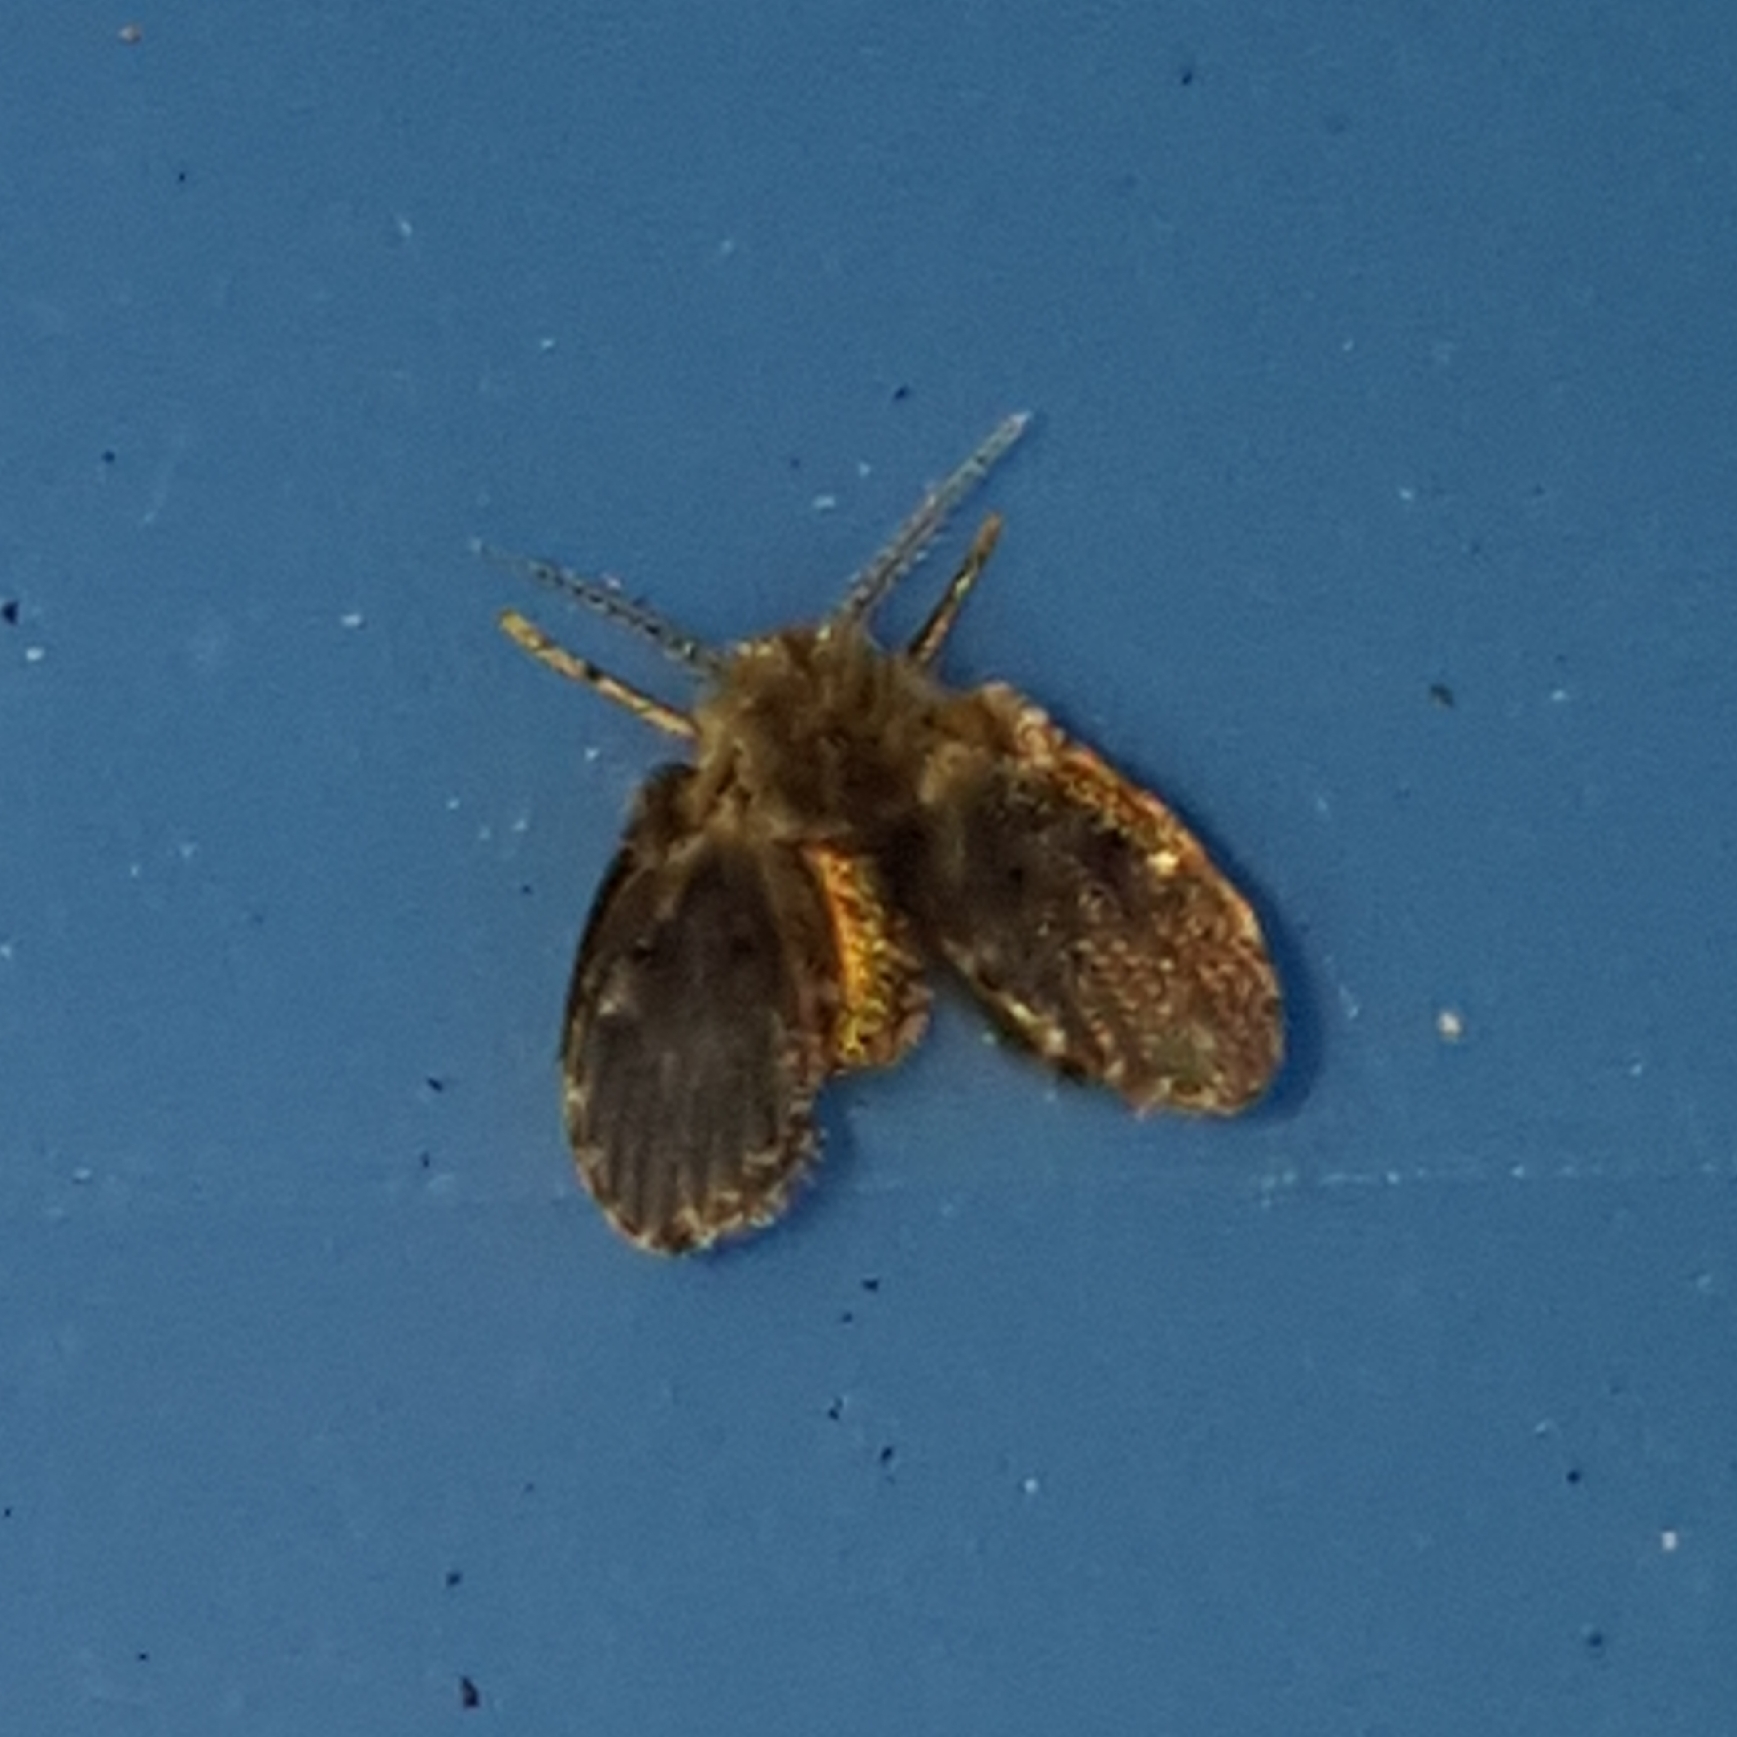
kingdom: Animalia
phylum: Arthropoda
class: Insecta
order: Diptera
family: Psychodidae
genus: Clogmia
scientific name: Clogmia albipunctatus
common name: White-spotted moth fly
